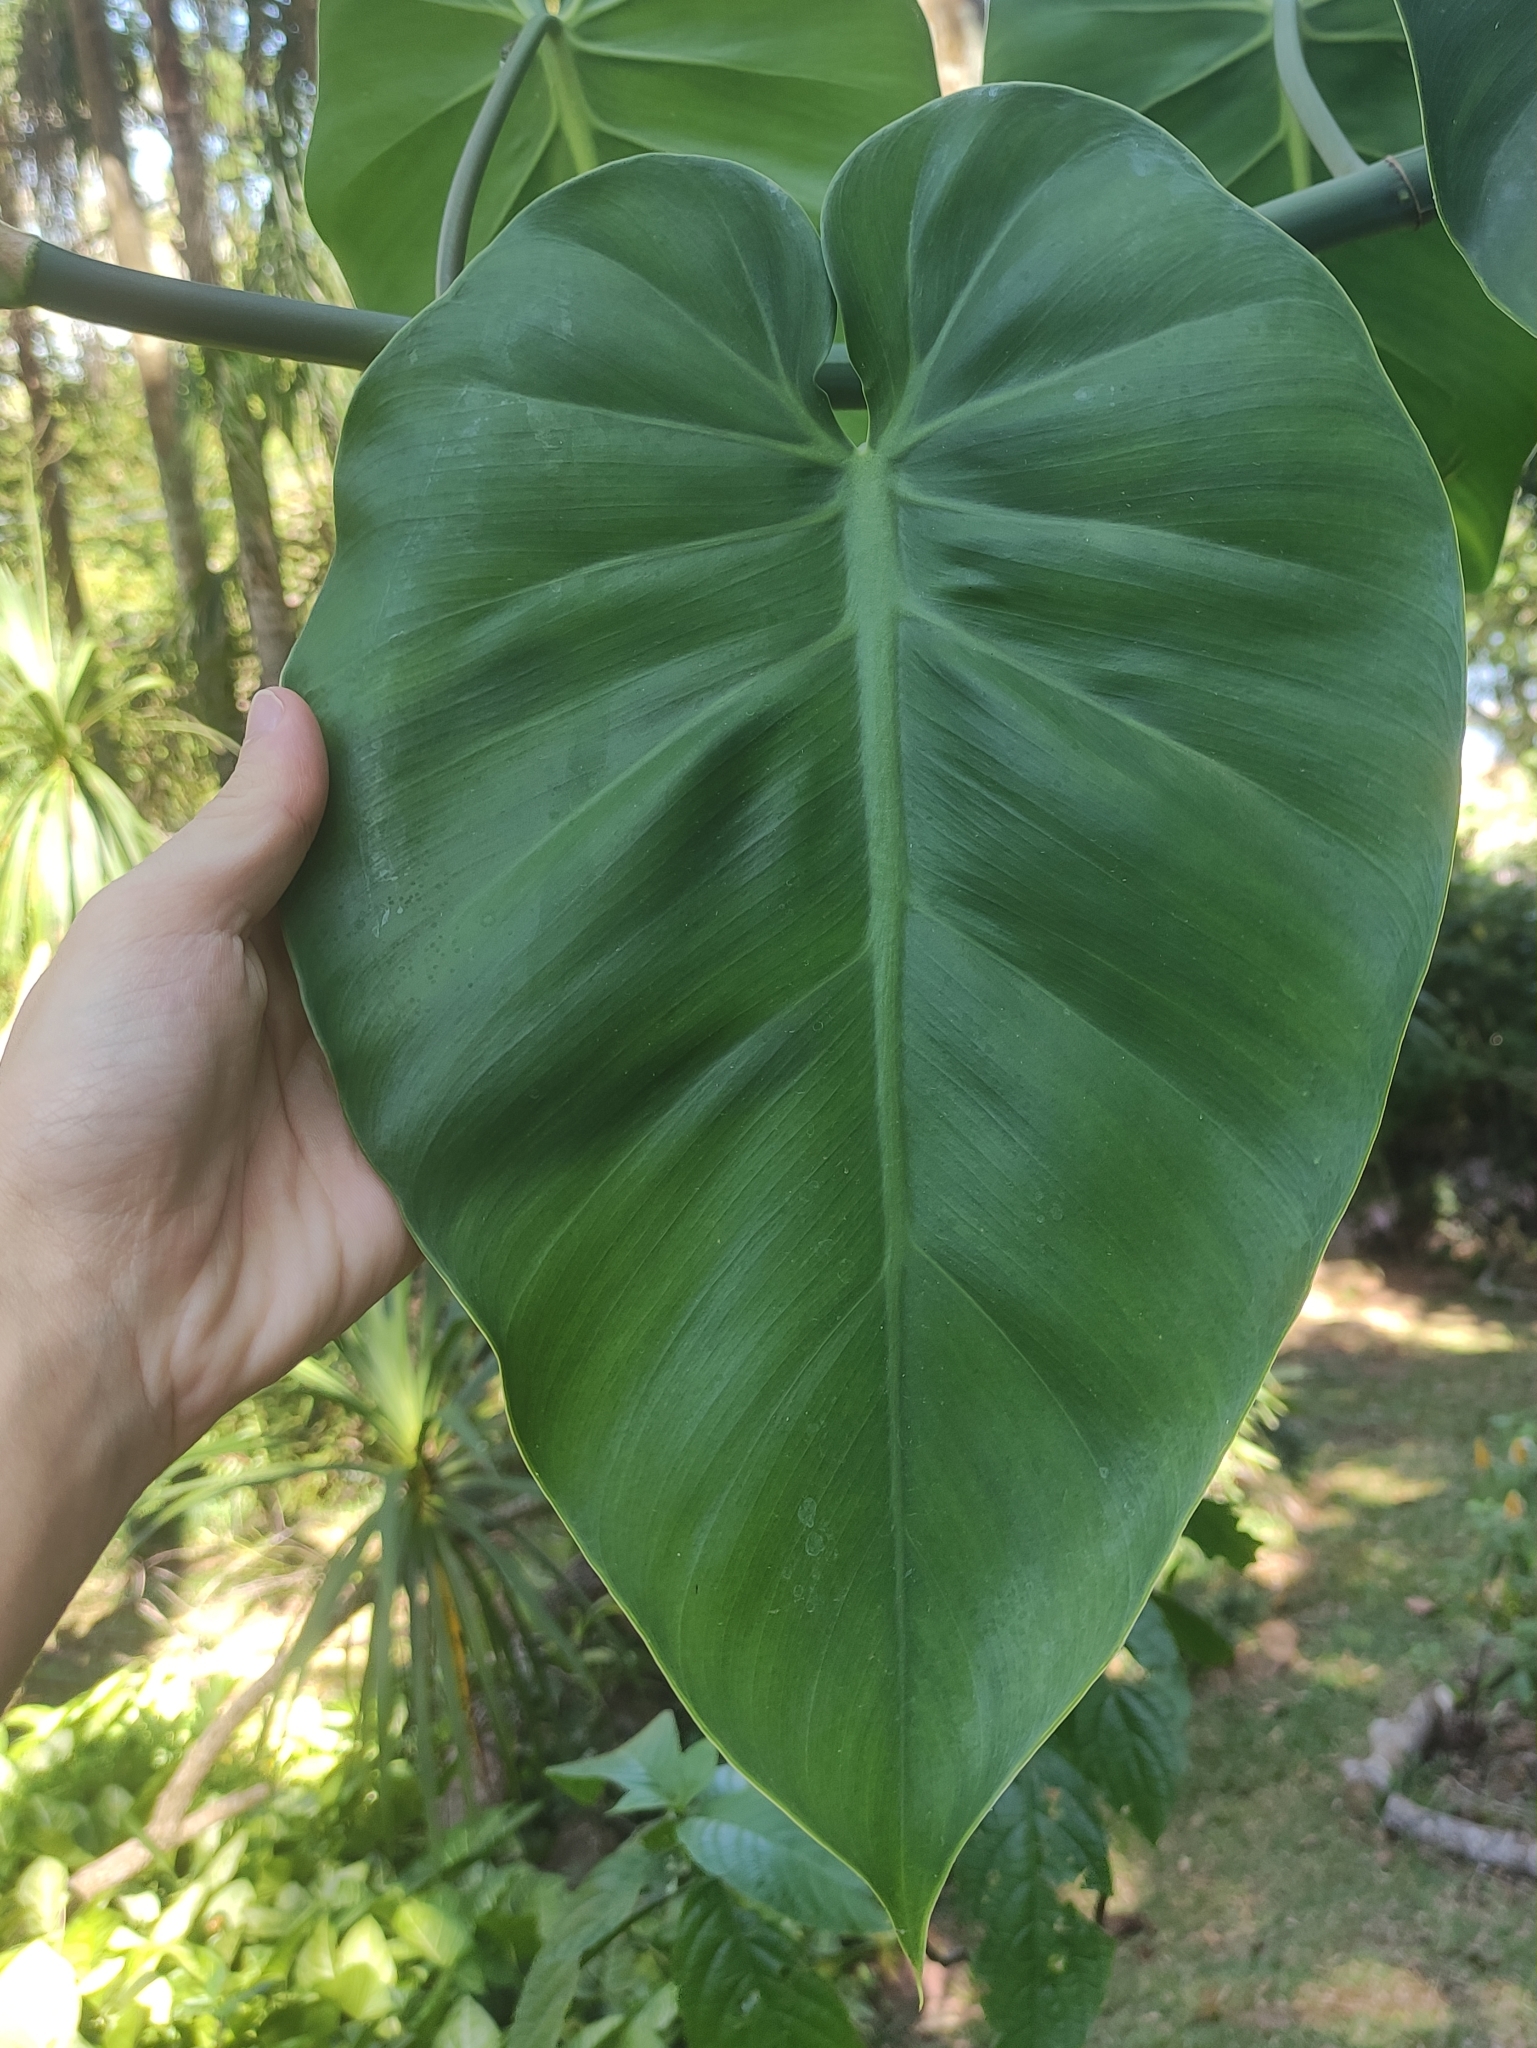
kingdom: Plantae
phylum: Tracheophyta
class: Liliopsida
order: Alismatales
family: Araceae
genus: Philodendron
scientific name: Philodendron hederaceum
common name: Vilevine
